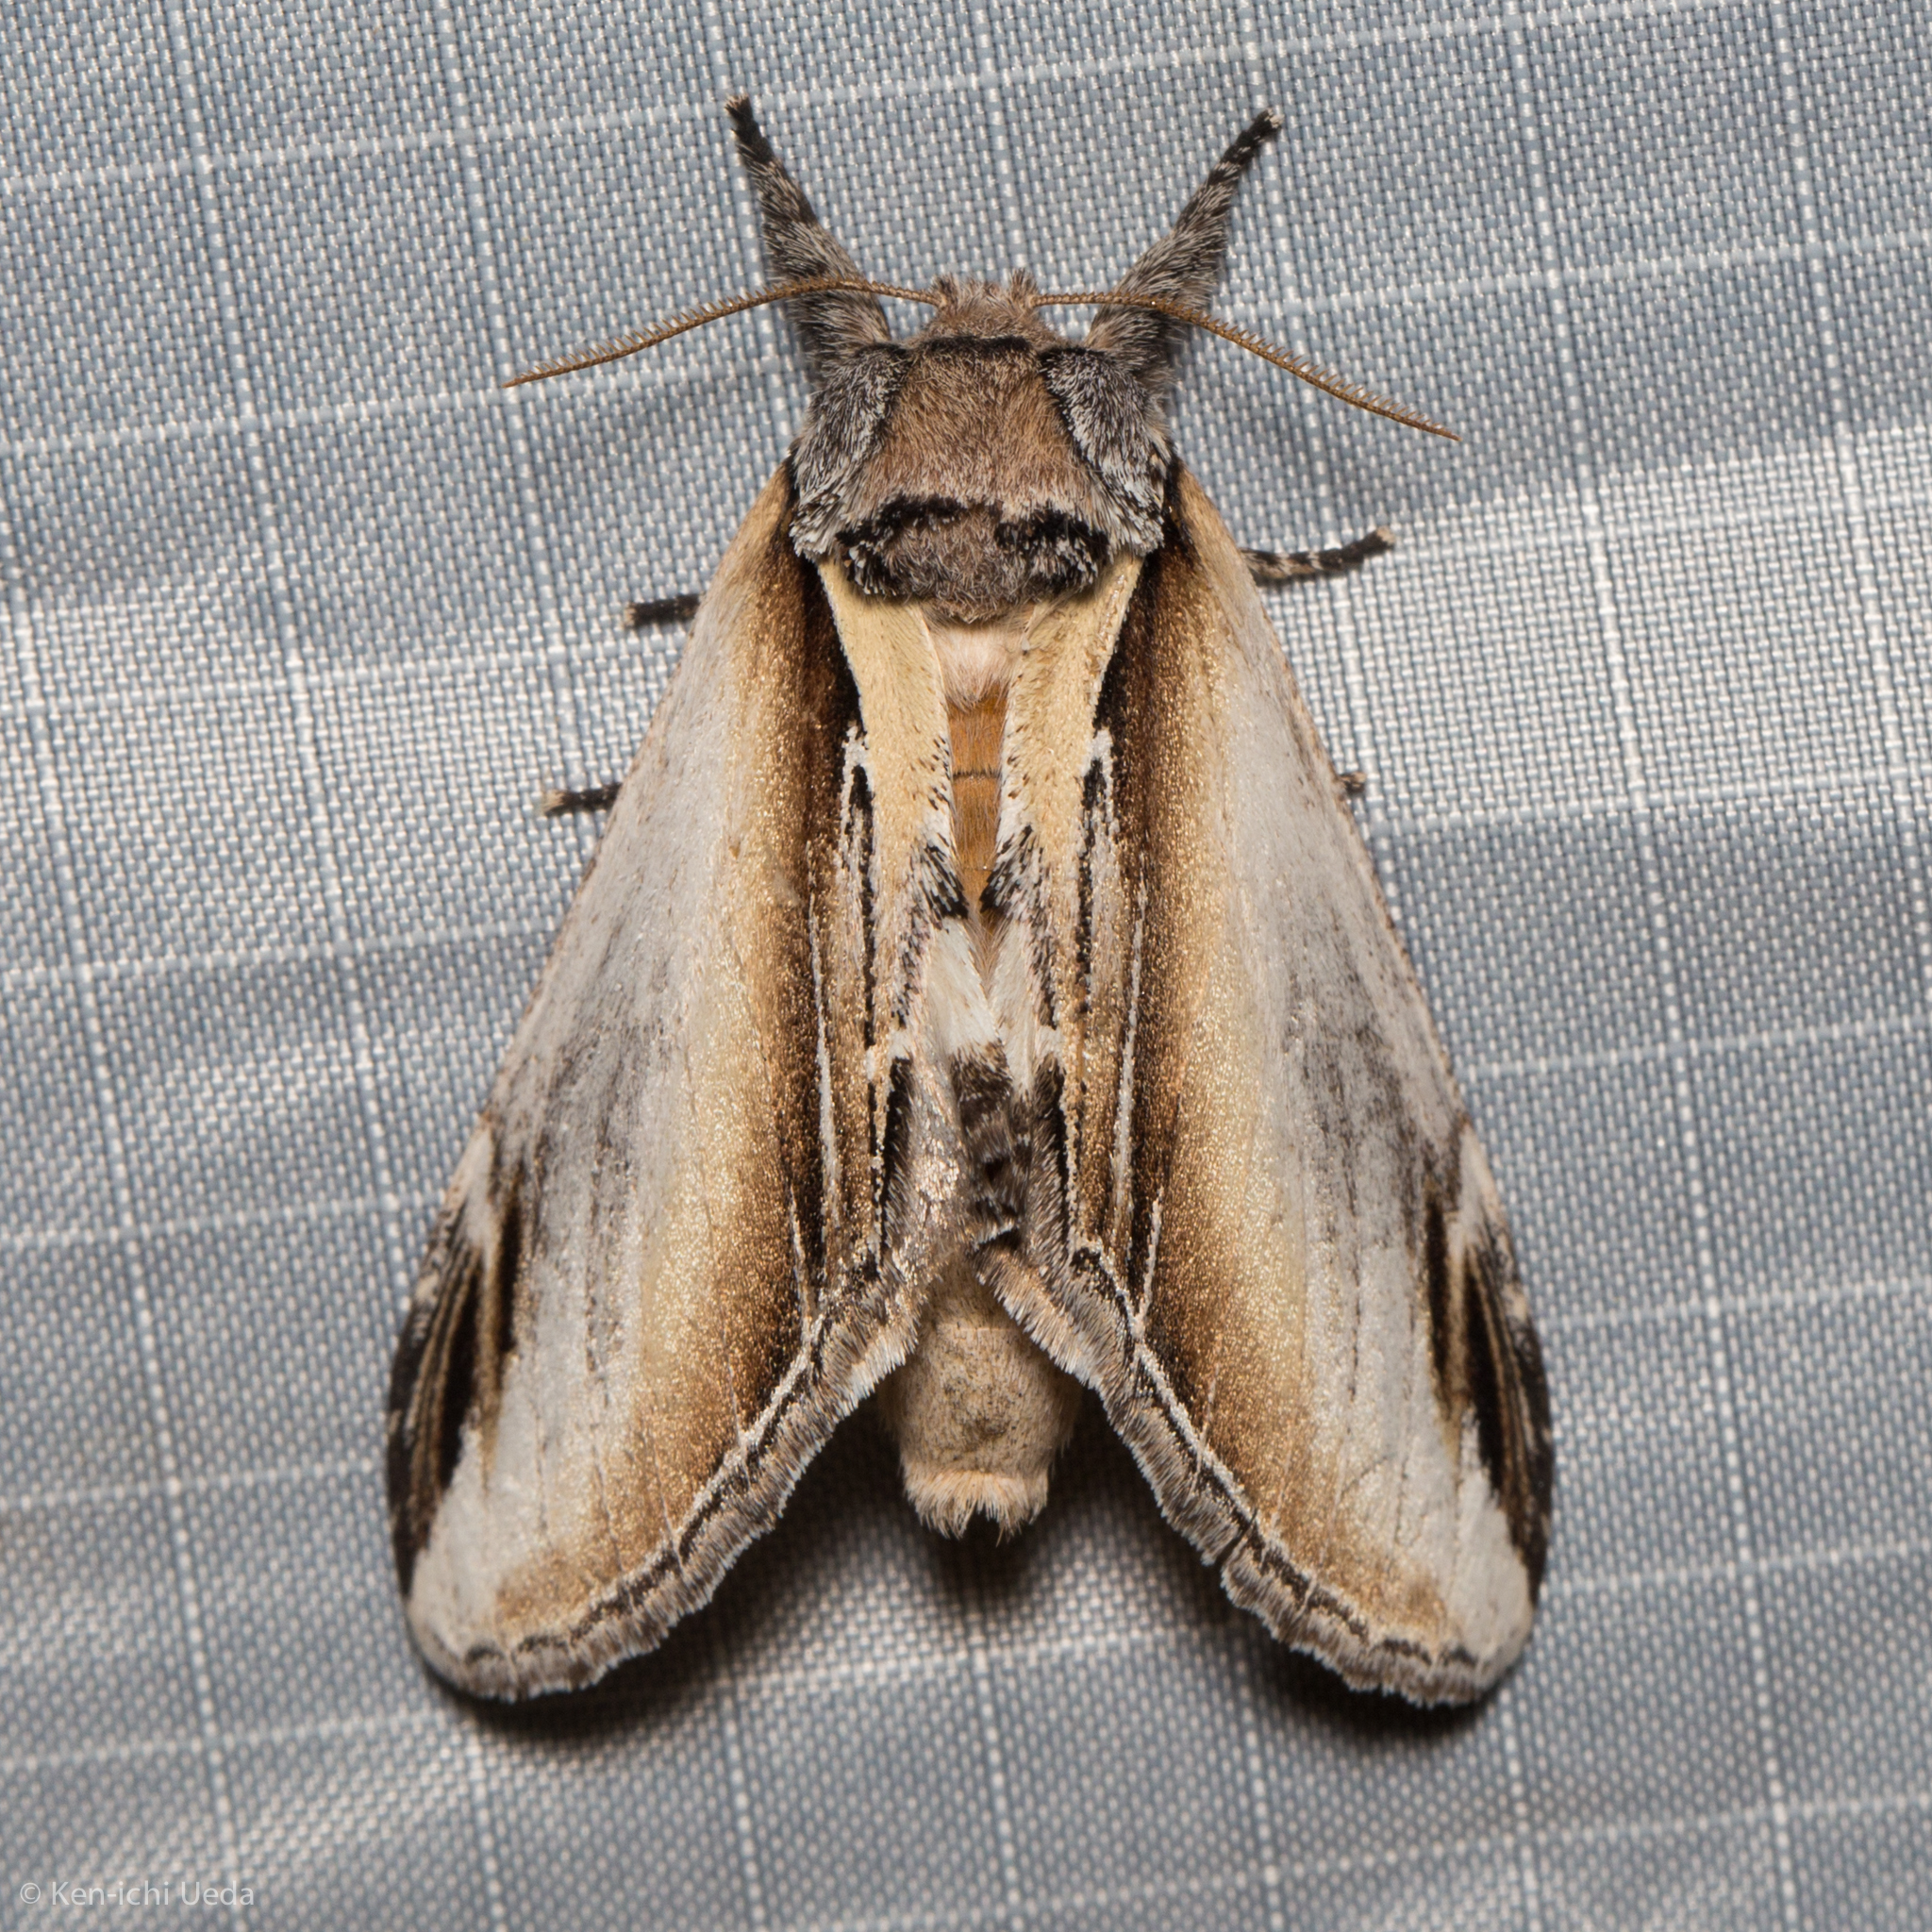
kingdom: Animalia
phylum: Arthropoda
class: Insecta
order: Lepidoptera
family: Notodontidae
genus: Pheosia
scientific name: Pheosia rimosa
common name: Black-rimmed prominent
